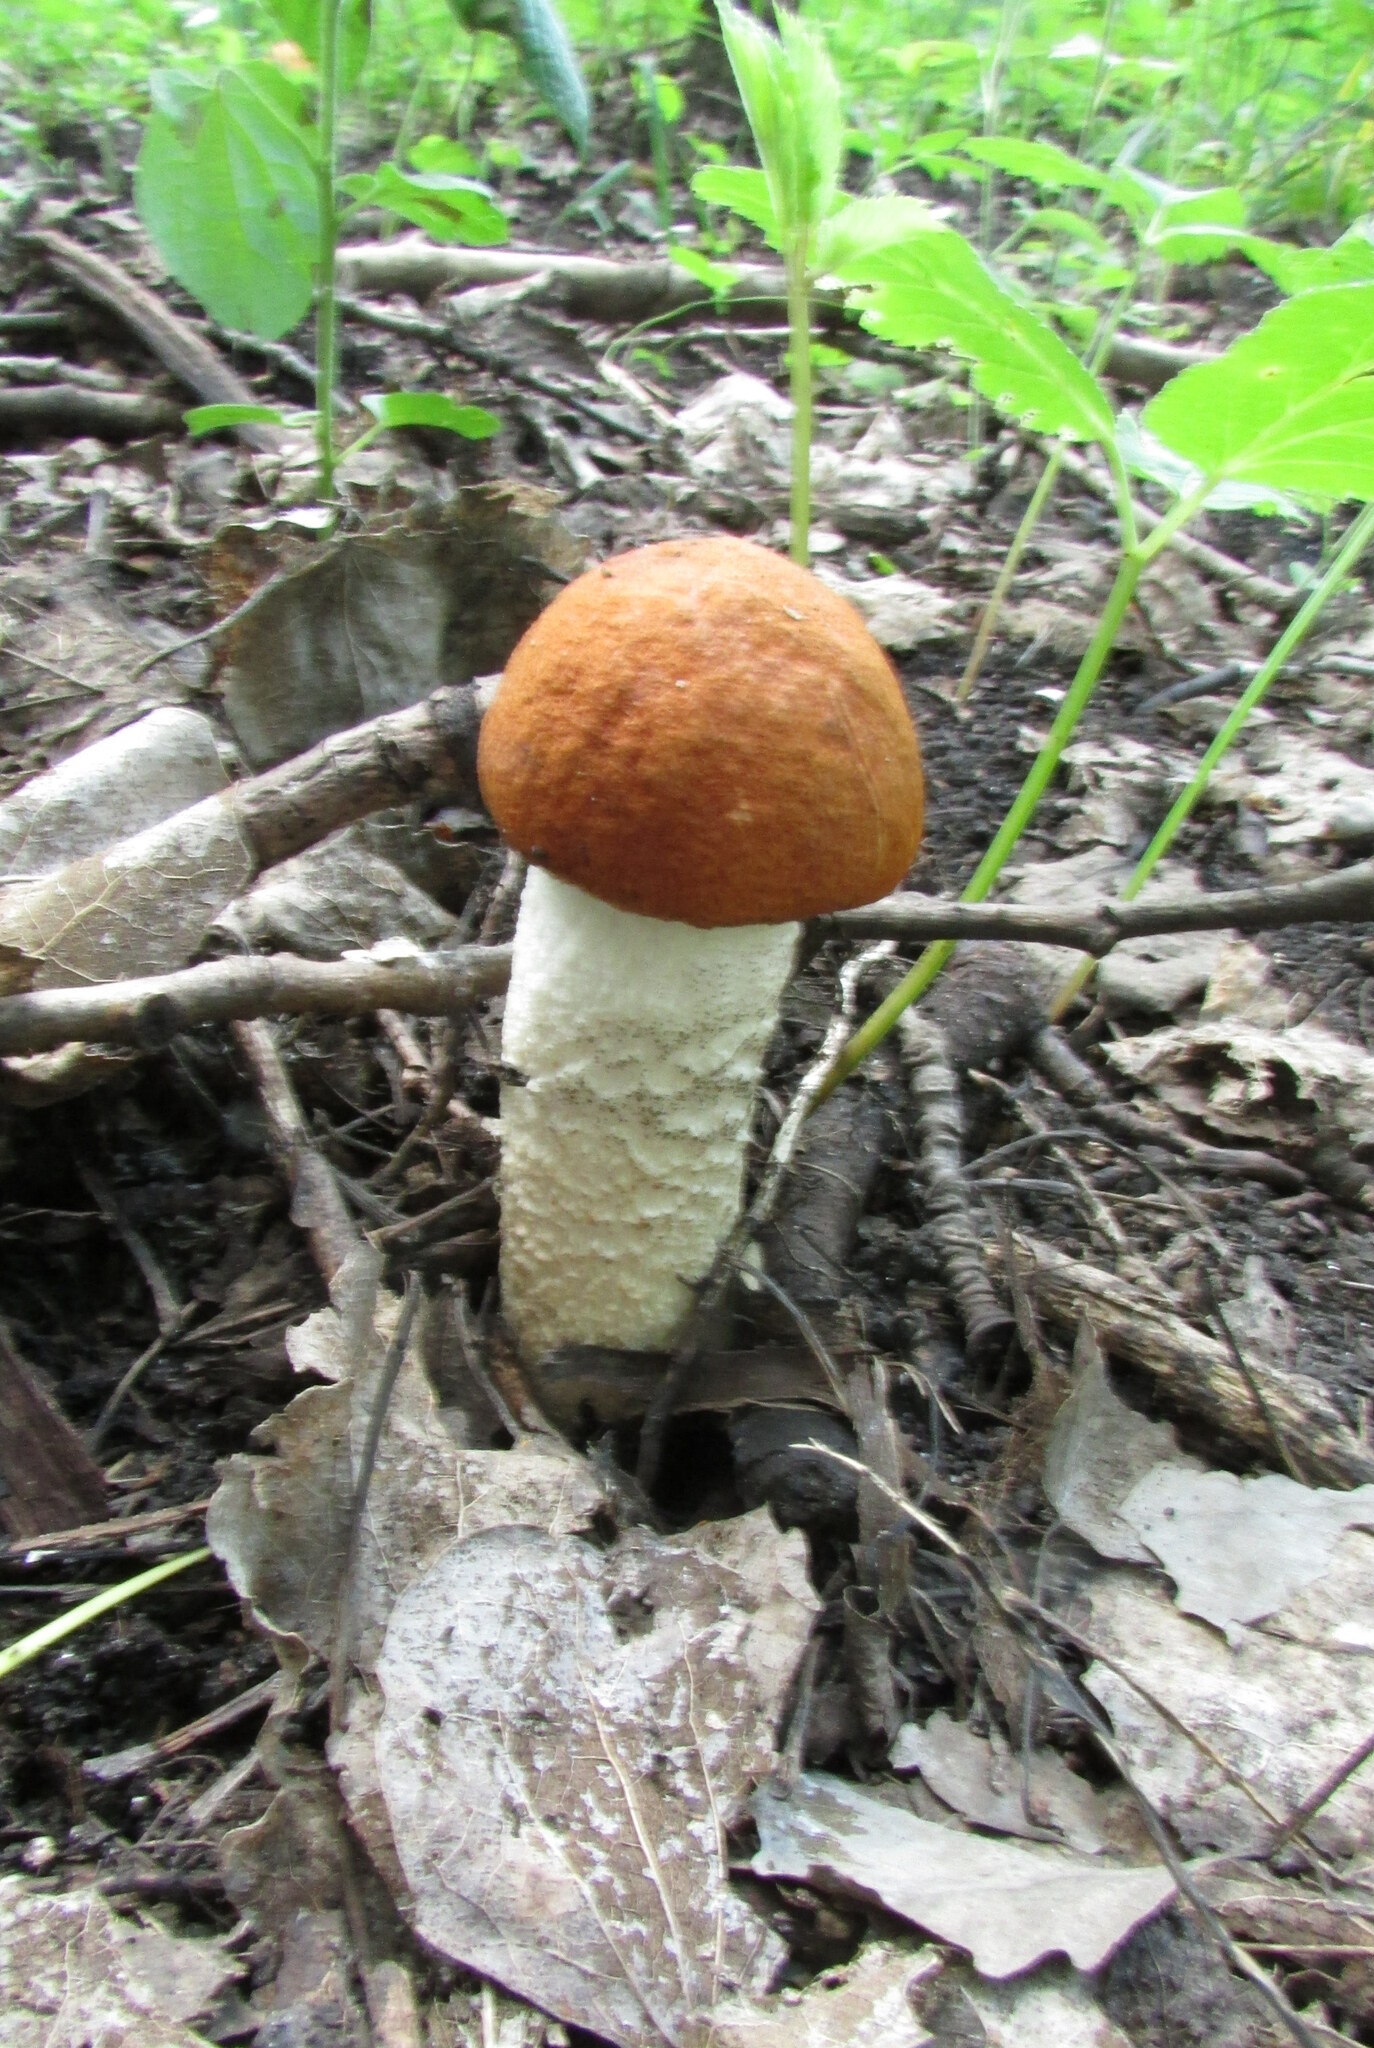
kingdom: Fungi
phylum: Basidiomycota
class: Agaricomycetes
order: Boletales
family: Boletaceae
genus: Leccinum
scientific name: Leccinum albostipitatum
